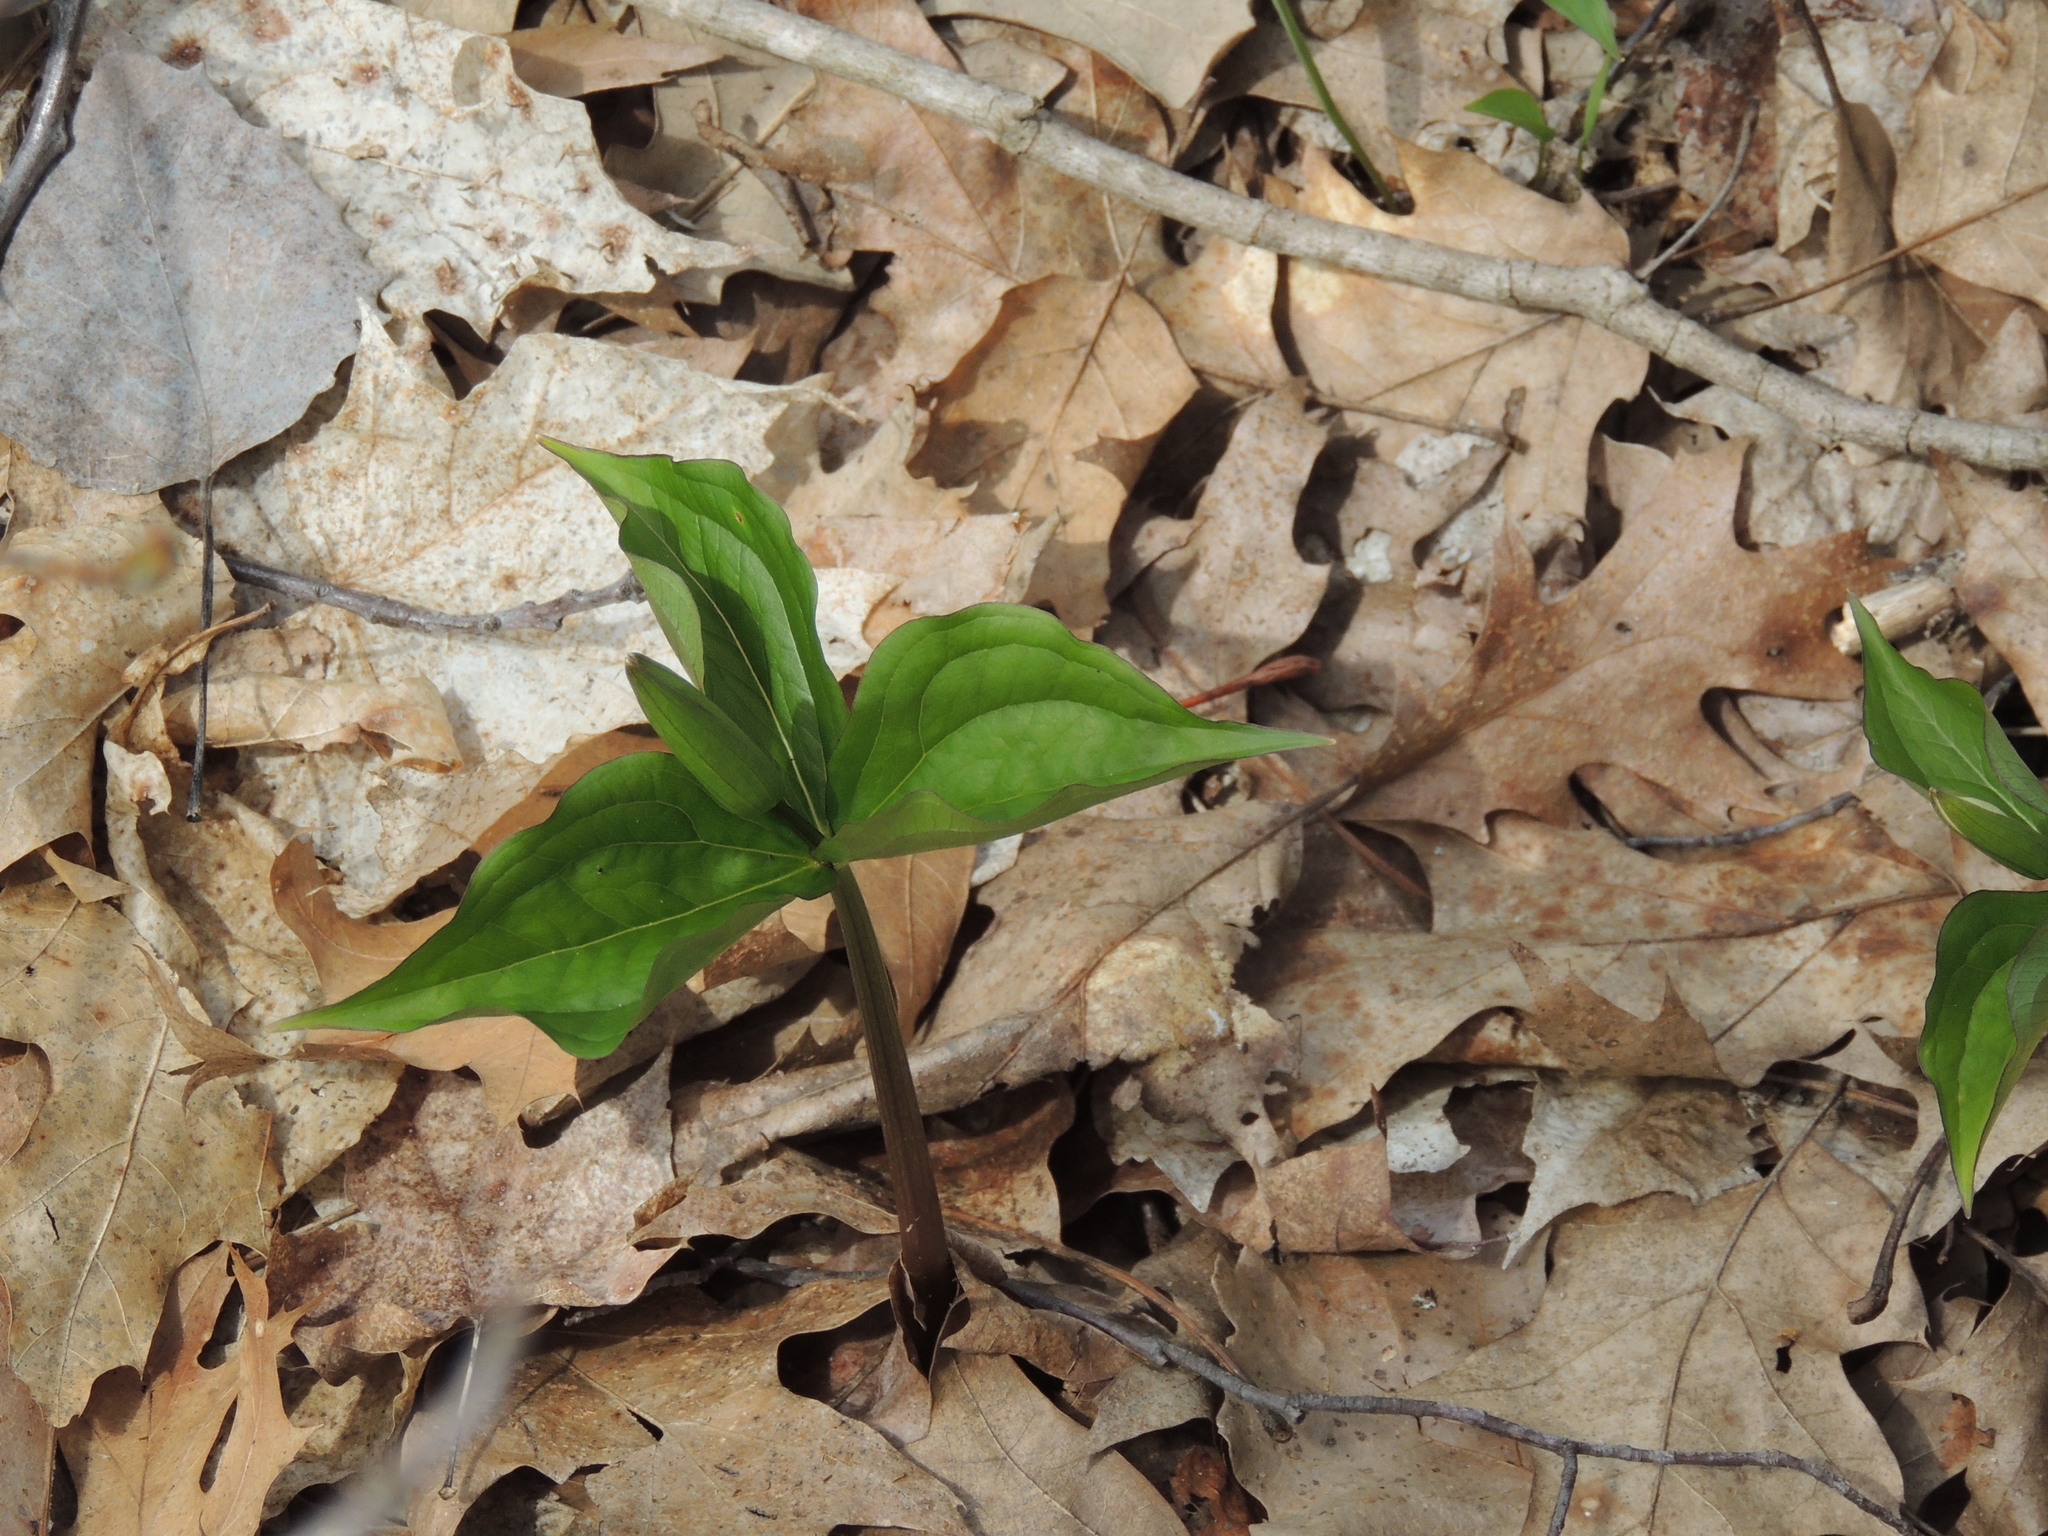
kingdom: Plantae
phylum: Tracheophyta
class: Liliopsida
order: Liliales
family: Melanthiaceae
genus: Trillium
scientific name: Trillium grandiflorum
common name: Great white trillium
